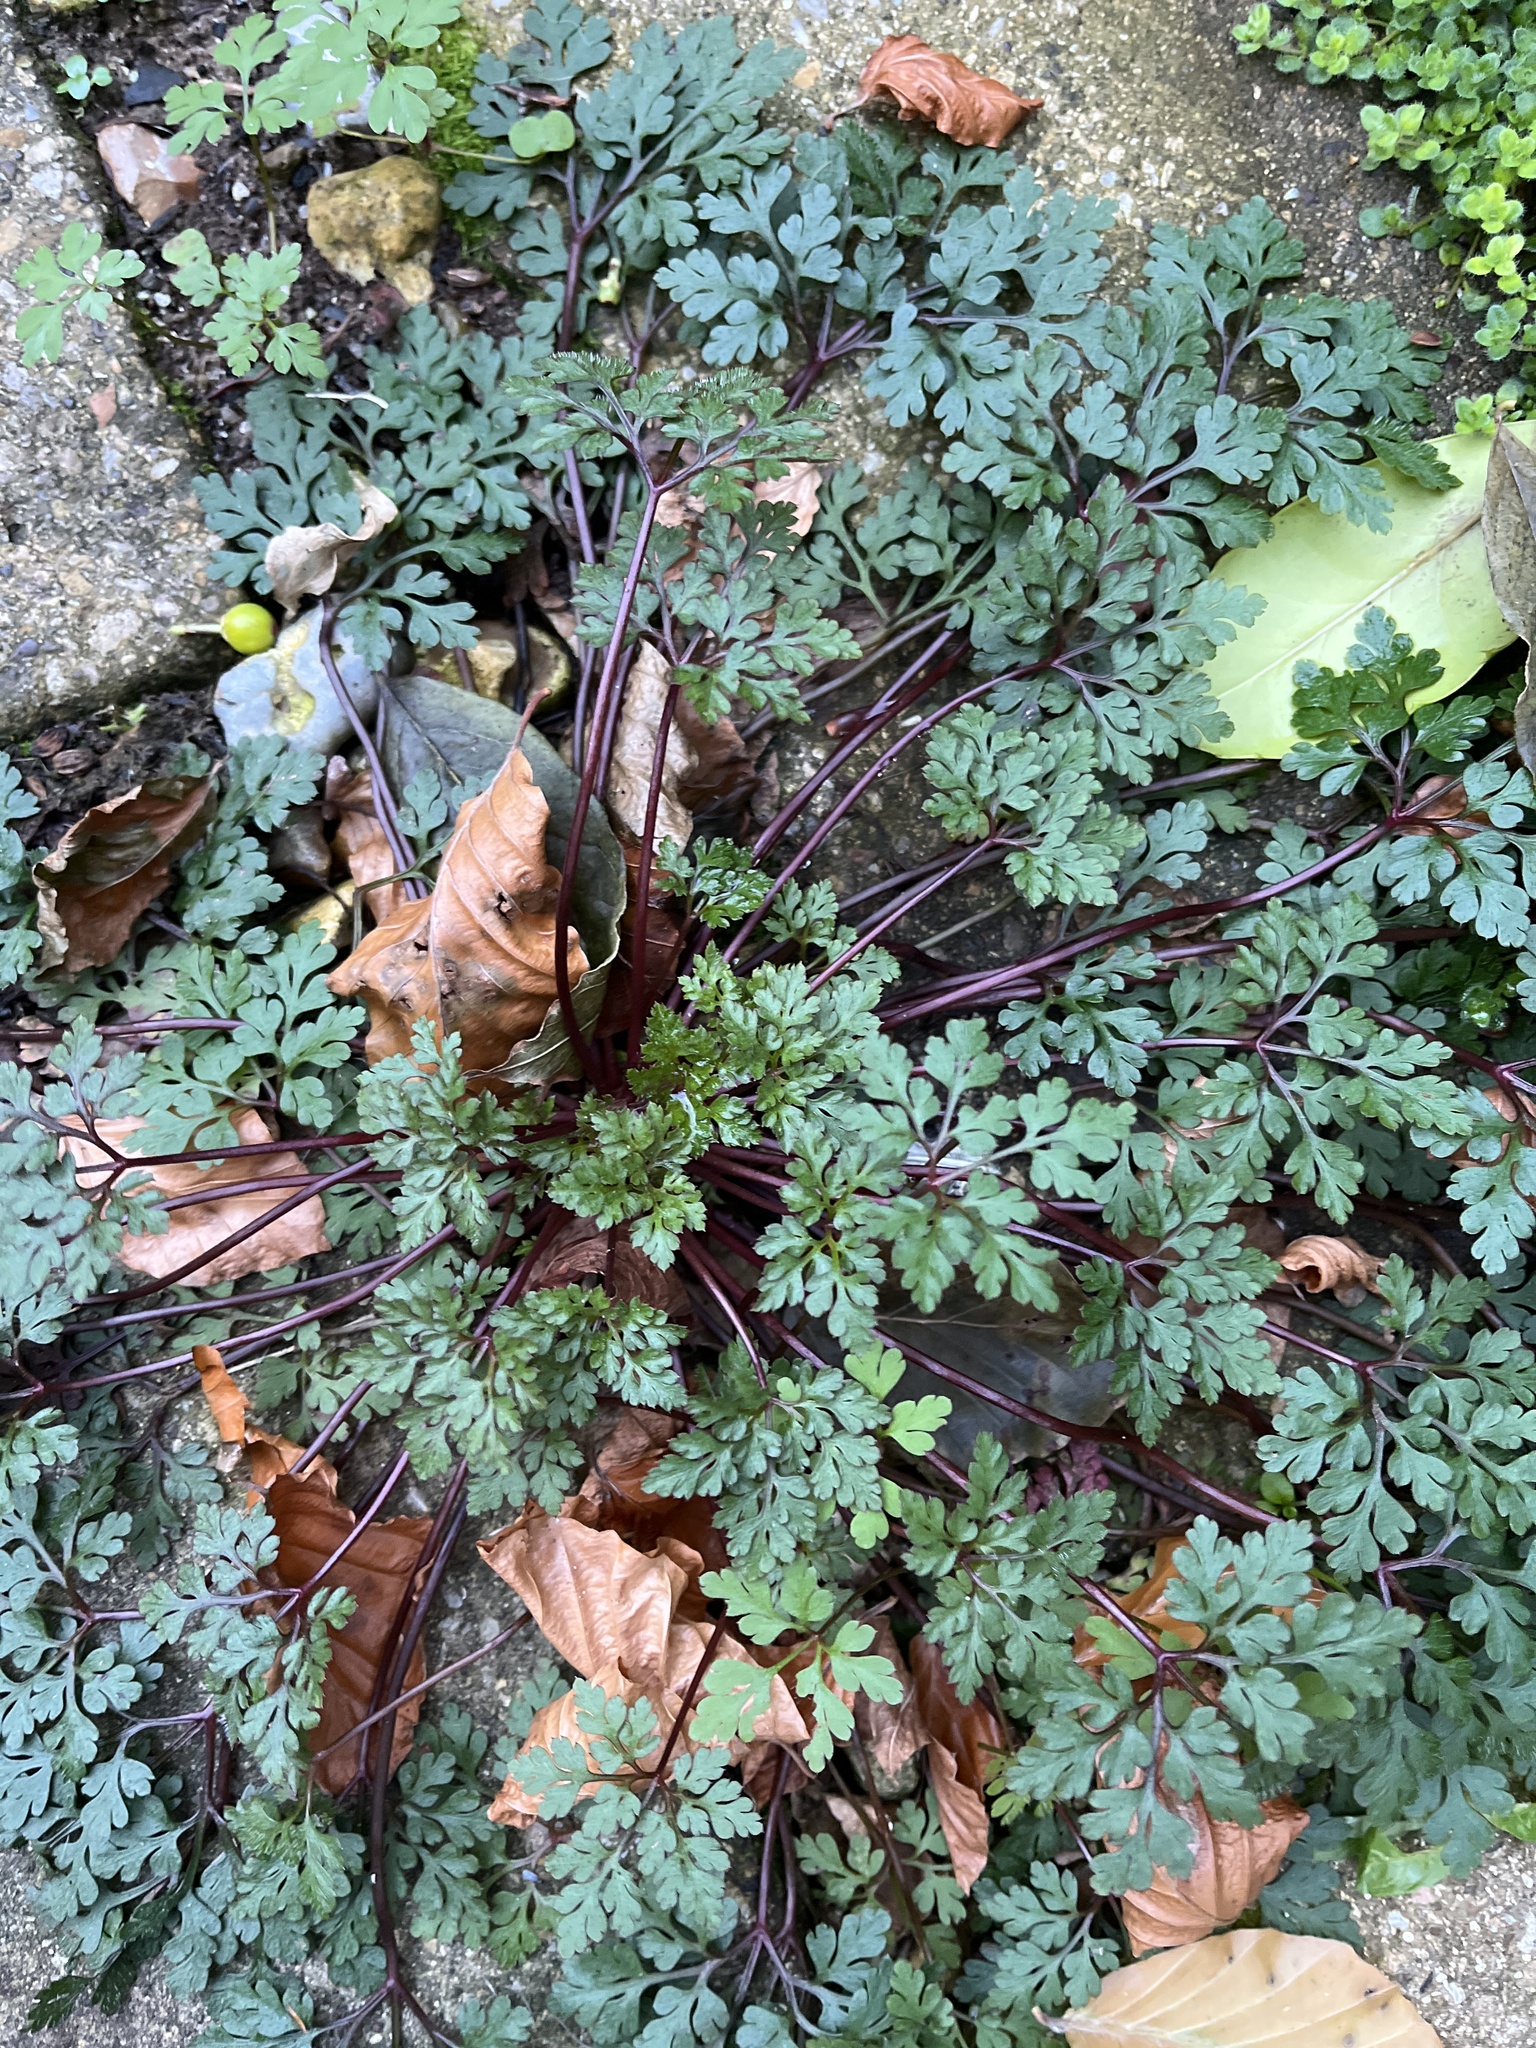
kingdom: Plantae
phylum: Tracheophyta
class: Magnoliopsida
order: Geraniales
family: Geraniaceae
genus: Geranium
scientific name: Geranium robertianum
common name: Herb-robert
